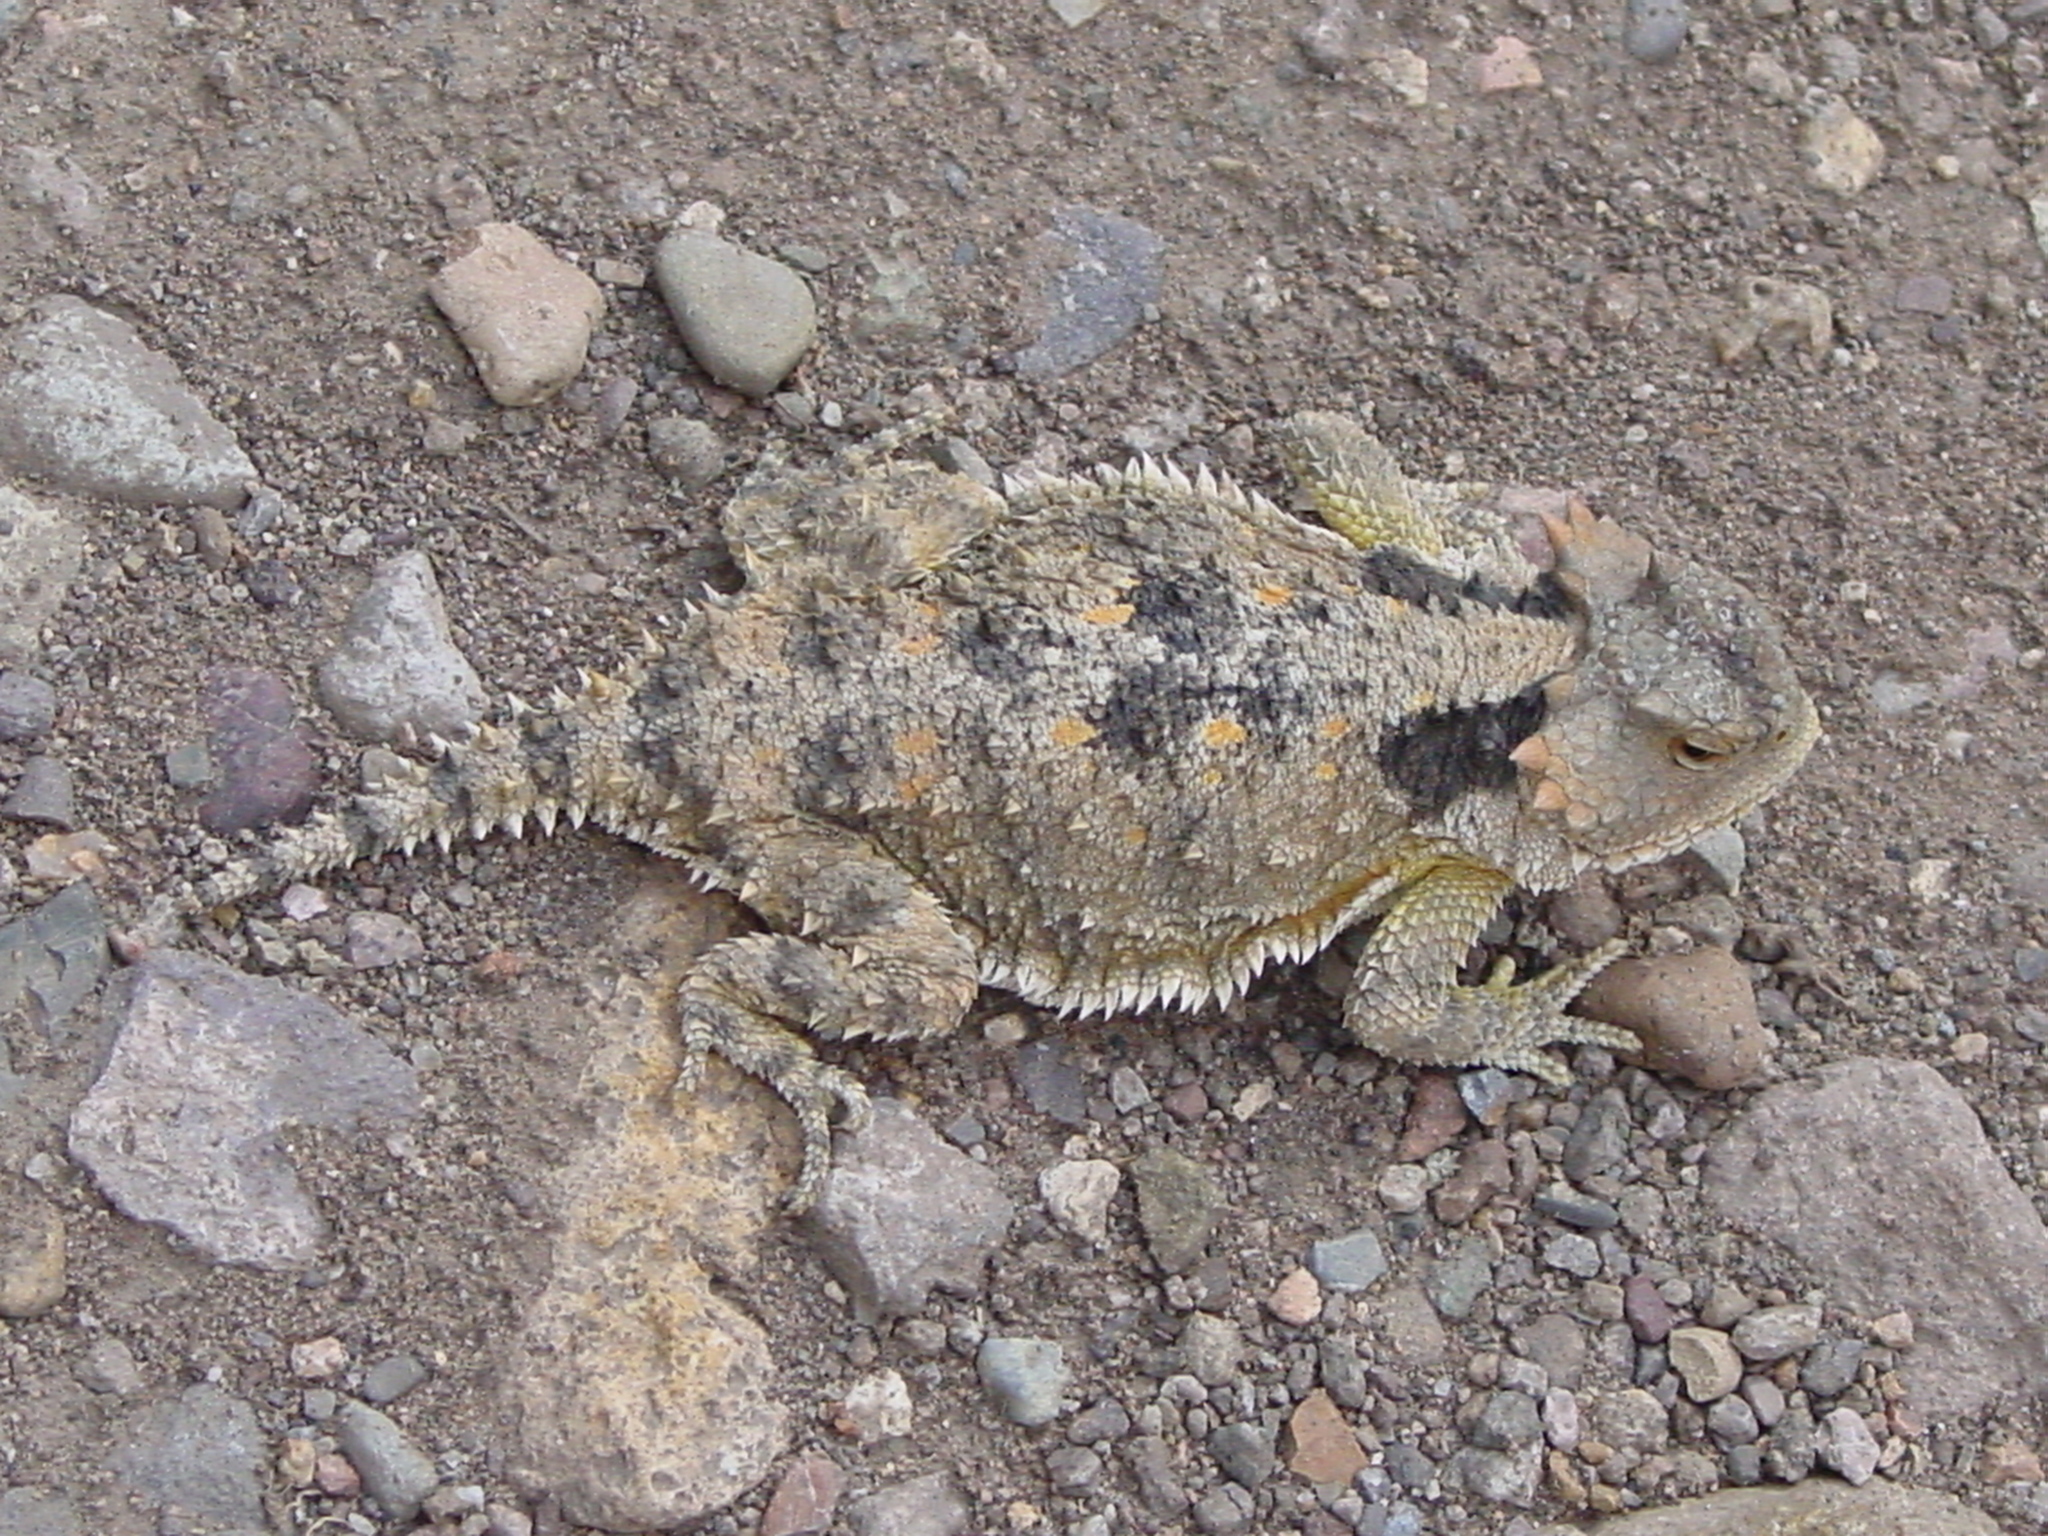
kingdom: Animalia
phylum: Chordata
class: Squamata
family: Phrynosomatidae
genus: Phrynosoma
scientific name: Phrynosoma hernandesi
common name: Greater short-horned lizard
